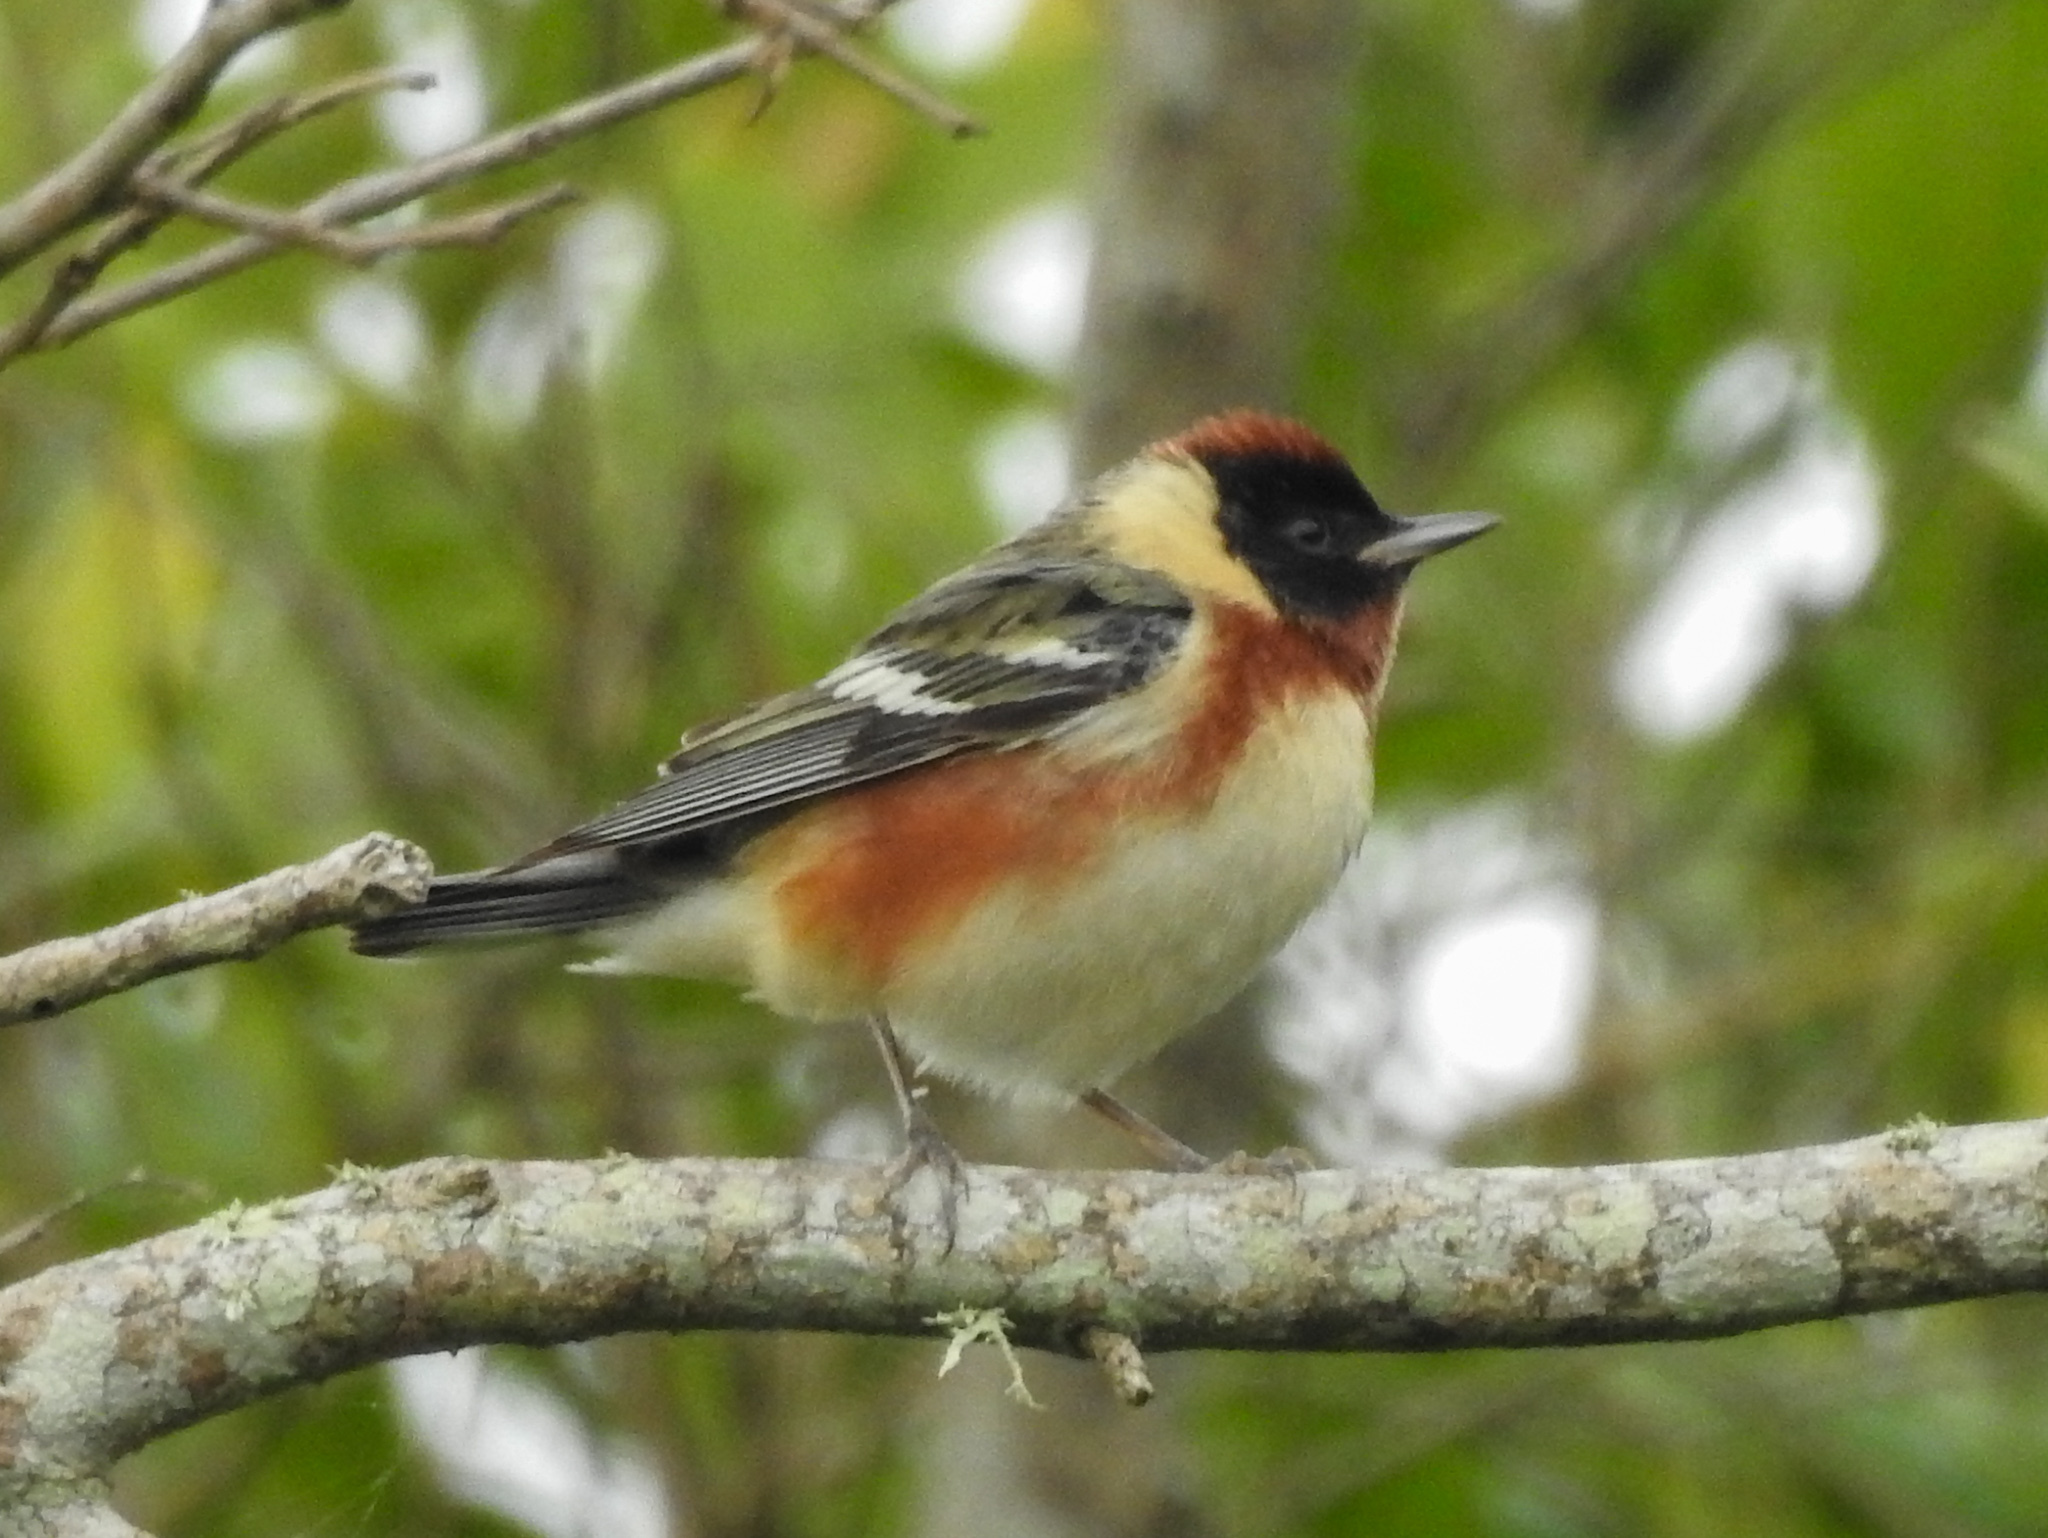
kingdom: Animalia
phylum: Chordata
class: Aves
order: Passeriformes
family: Parulidae
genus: Setophaga
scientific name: Setophaga castanea
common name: Bay-breasted warbler
